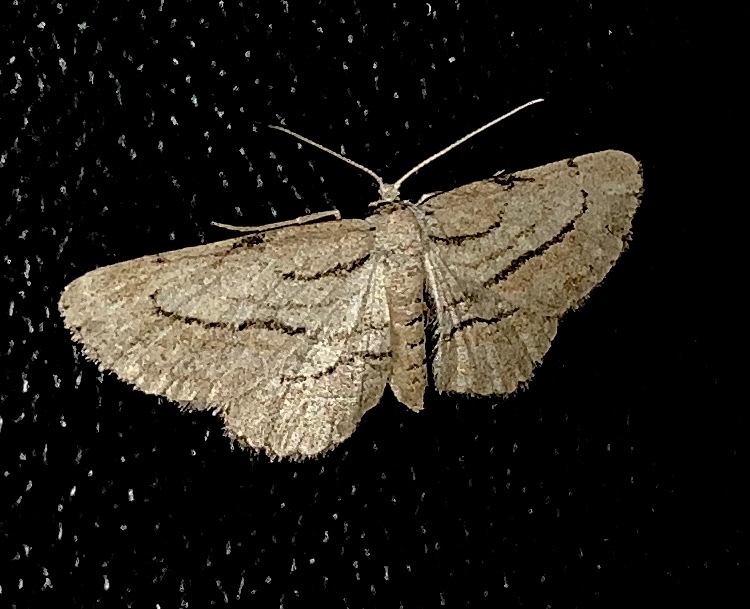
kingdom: Animalia
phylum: Arthropoda
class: Insecta
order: Lepidoptera
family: Geometridae
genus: Glena
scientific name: Glena plumosaria
